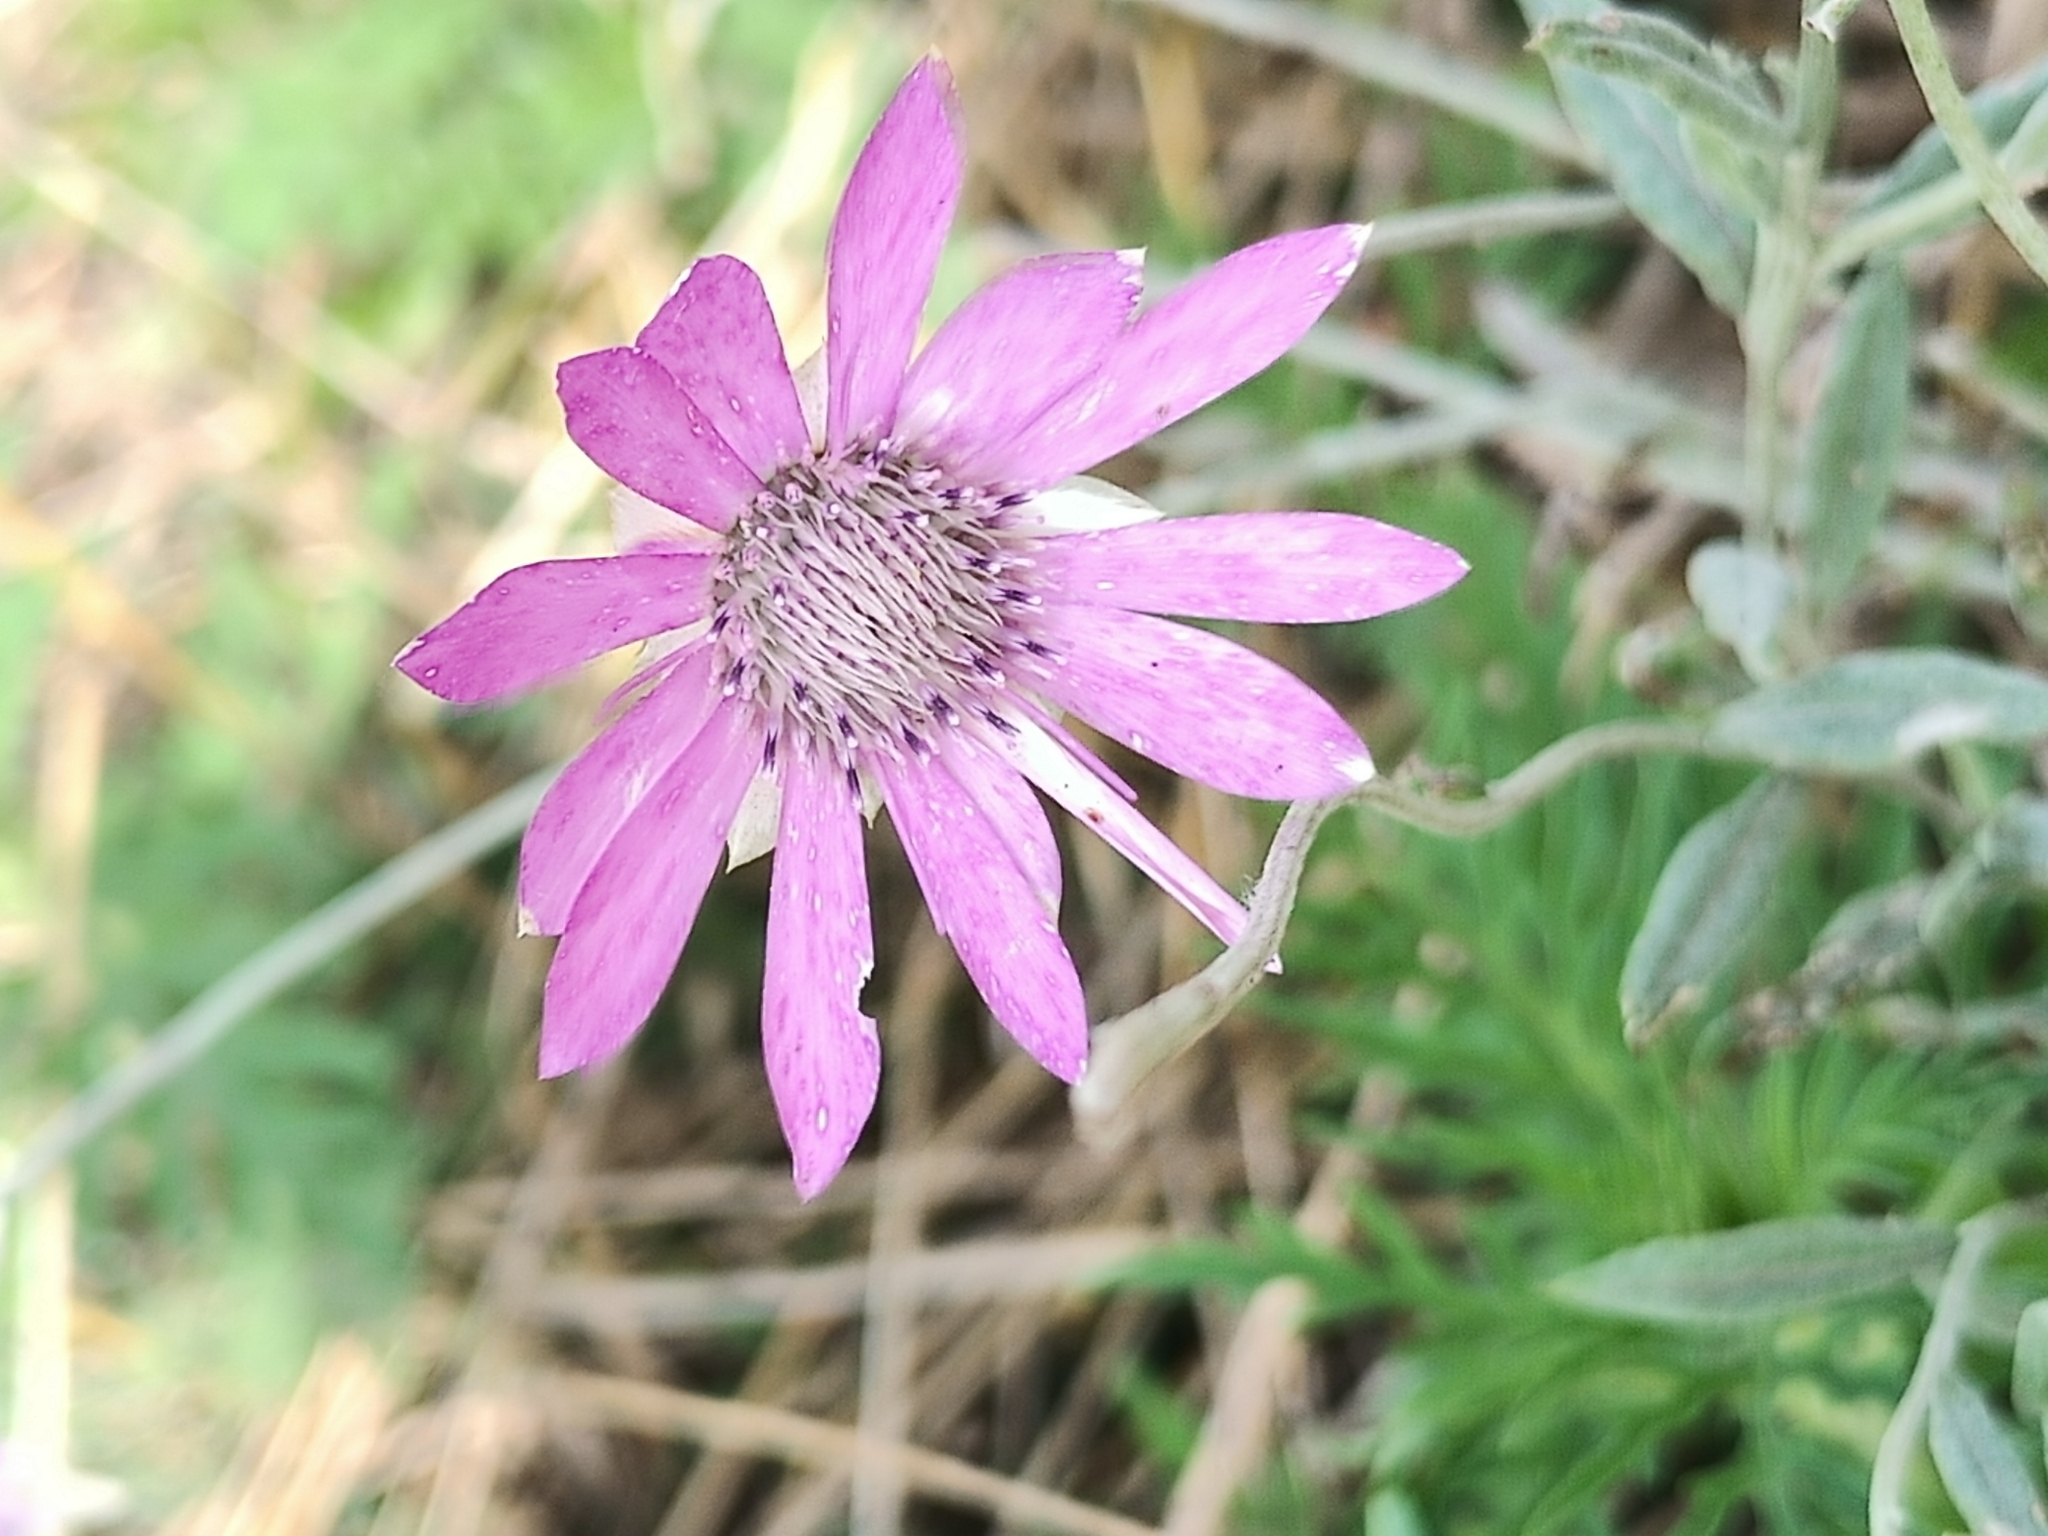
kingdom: Plantae
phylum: Tracheophyta
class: Magnoliopsida
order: Asterales
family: Asteraceae
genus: Xeranthemum
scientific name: Xeranthemum annuum
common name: Immortelle
